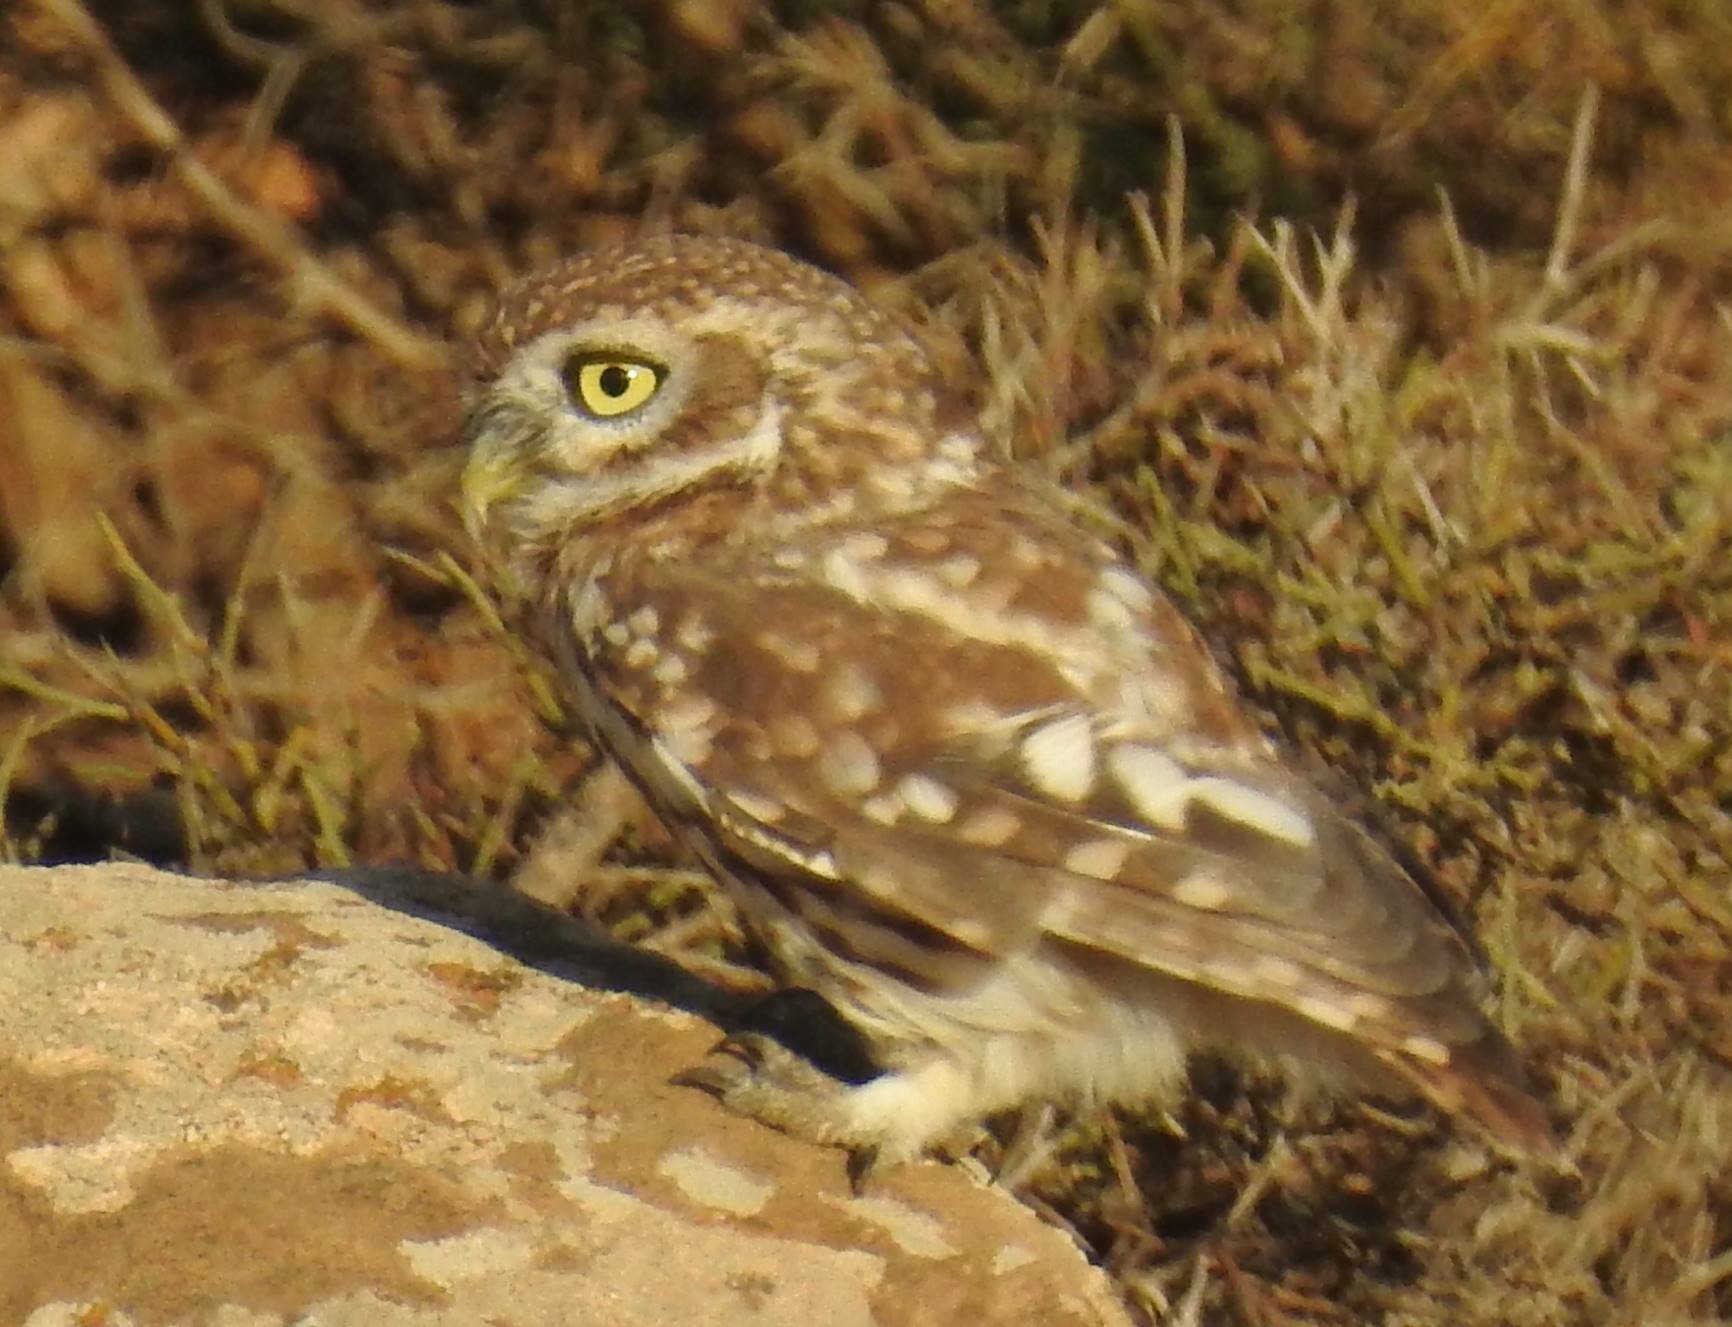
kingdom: Animalia
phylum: Chordata
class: Aves
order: Strigiformes
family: Strigidae
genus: Athene
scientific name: Athene noctua
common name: Little owl
